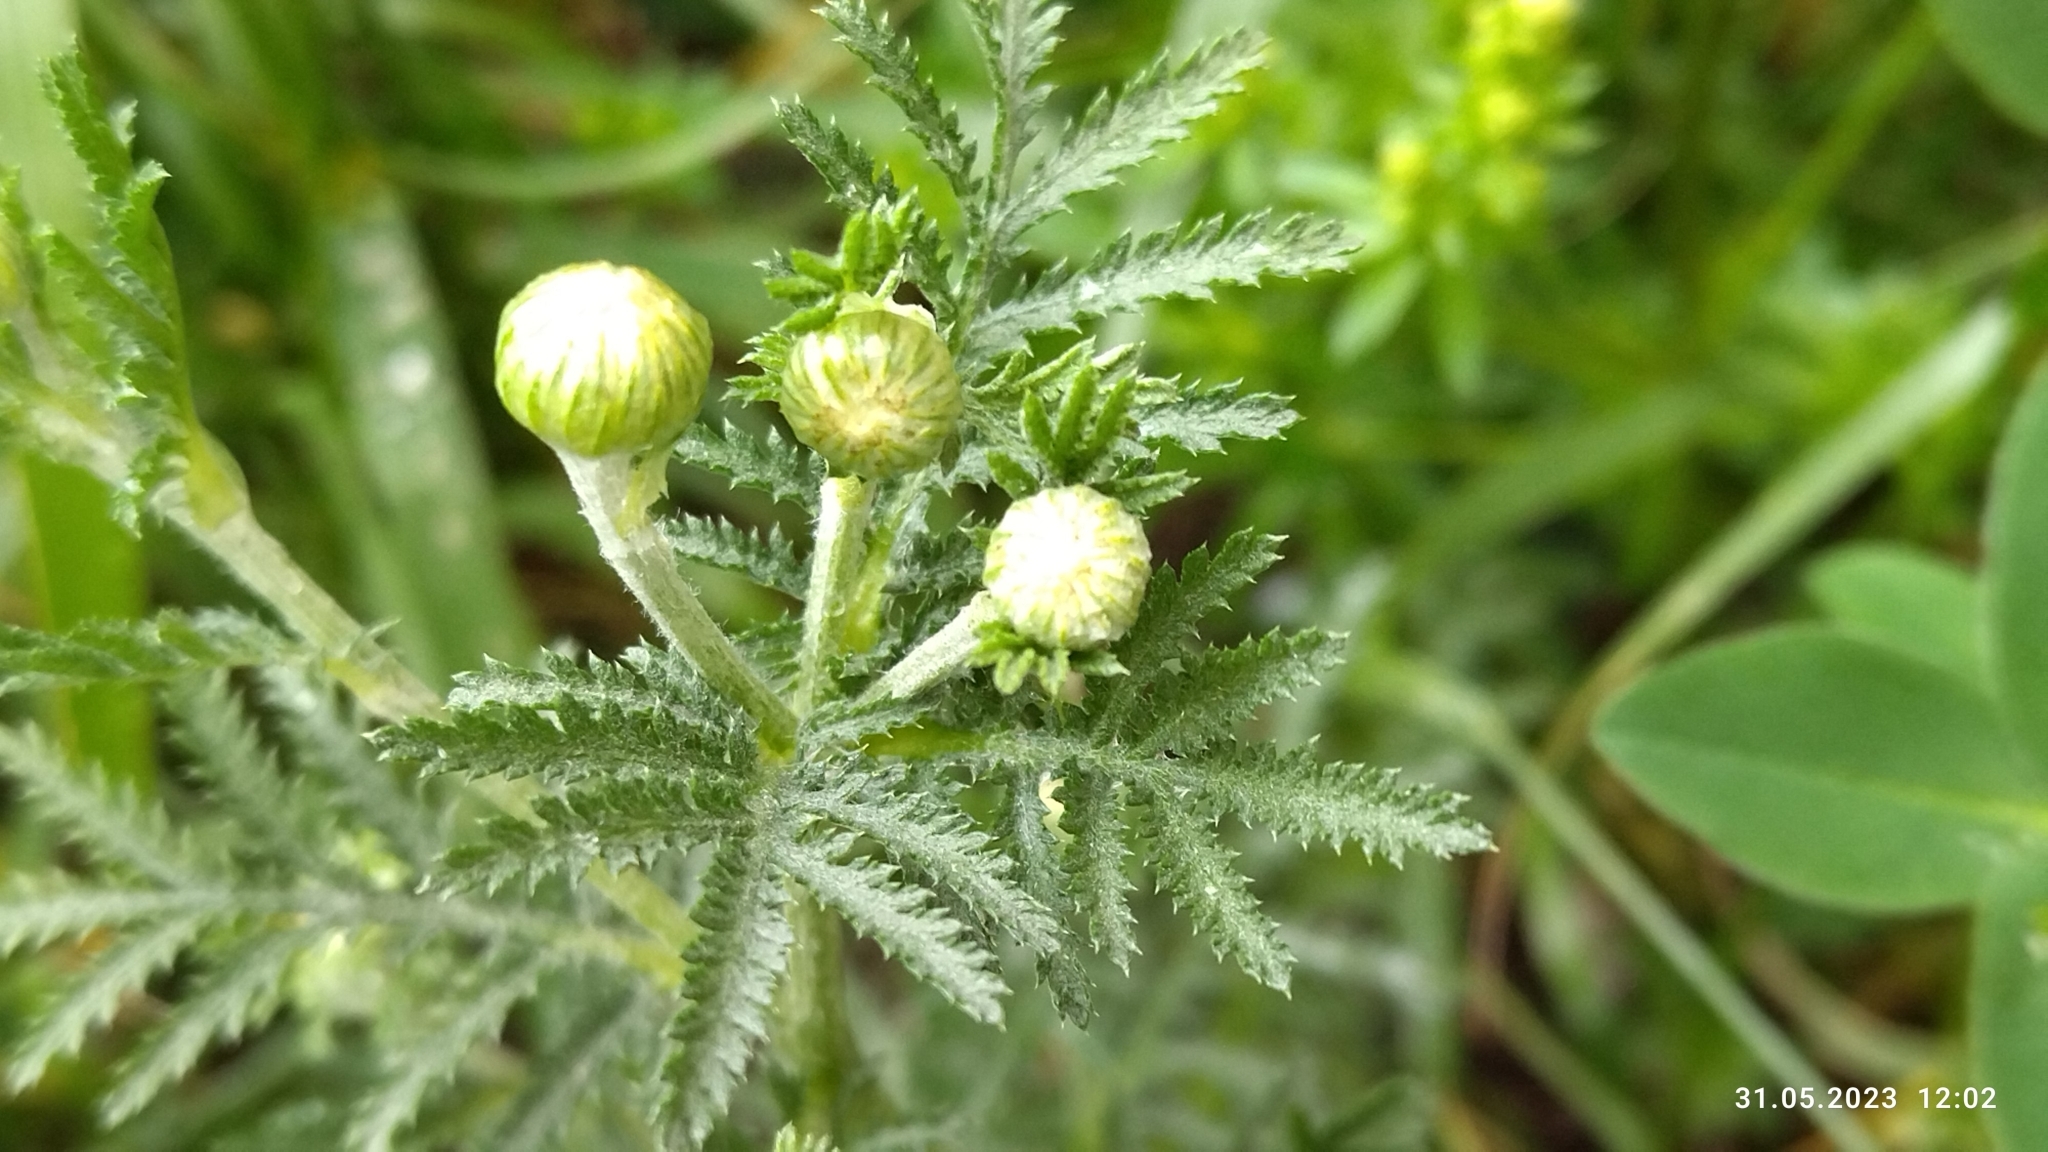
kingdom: Plantae
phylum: Tracheophyta
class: Magnoliopsida
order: Asterales
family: Asteraceae
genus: Cota
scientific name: Cota tinctoria
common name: Golden chamomile
